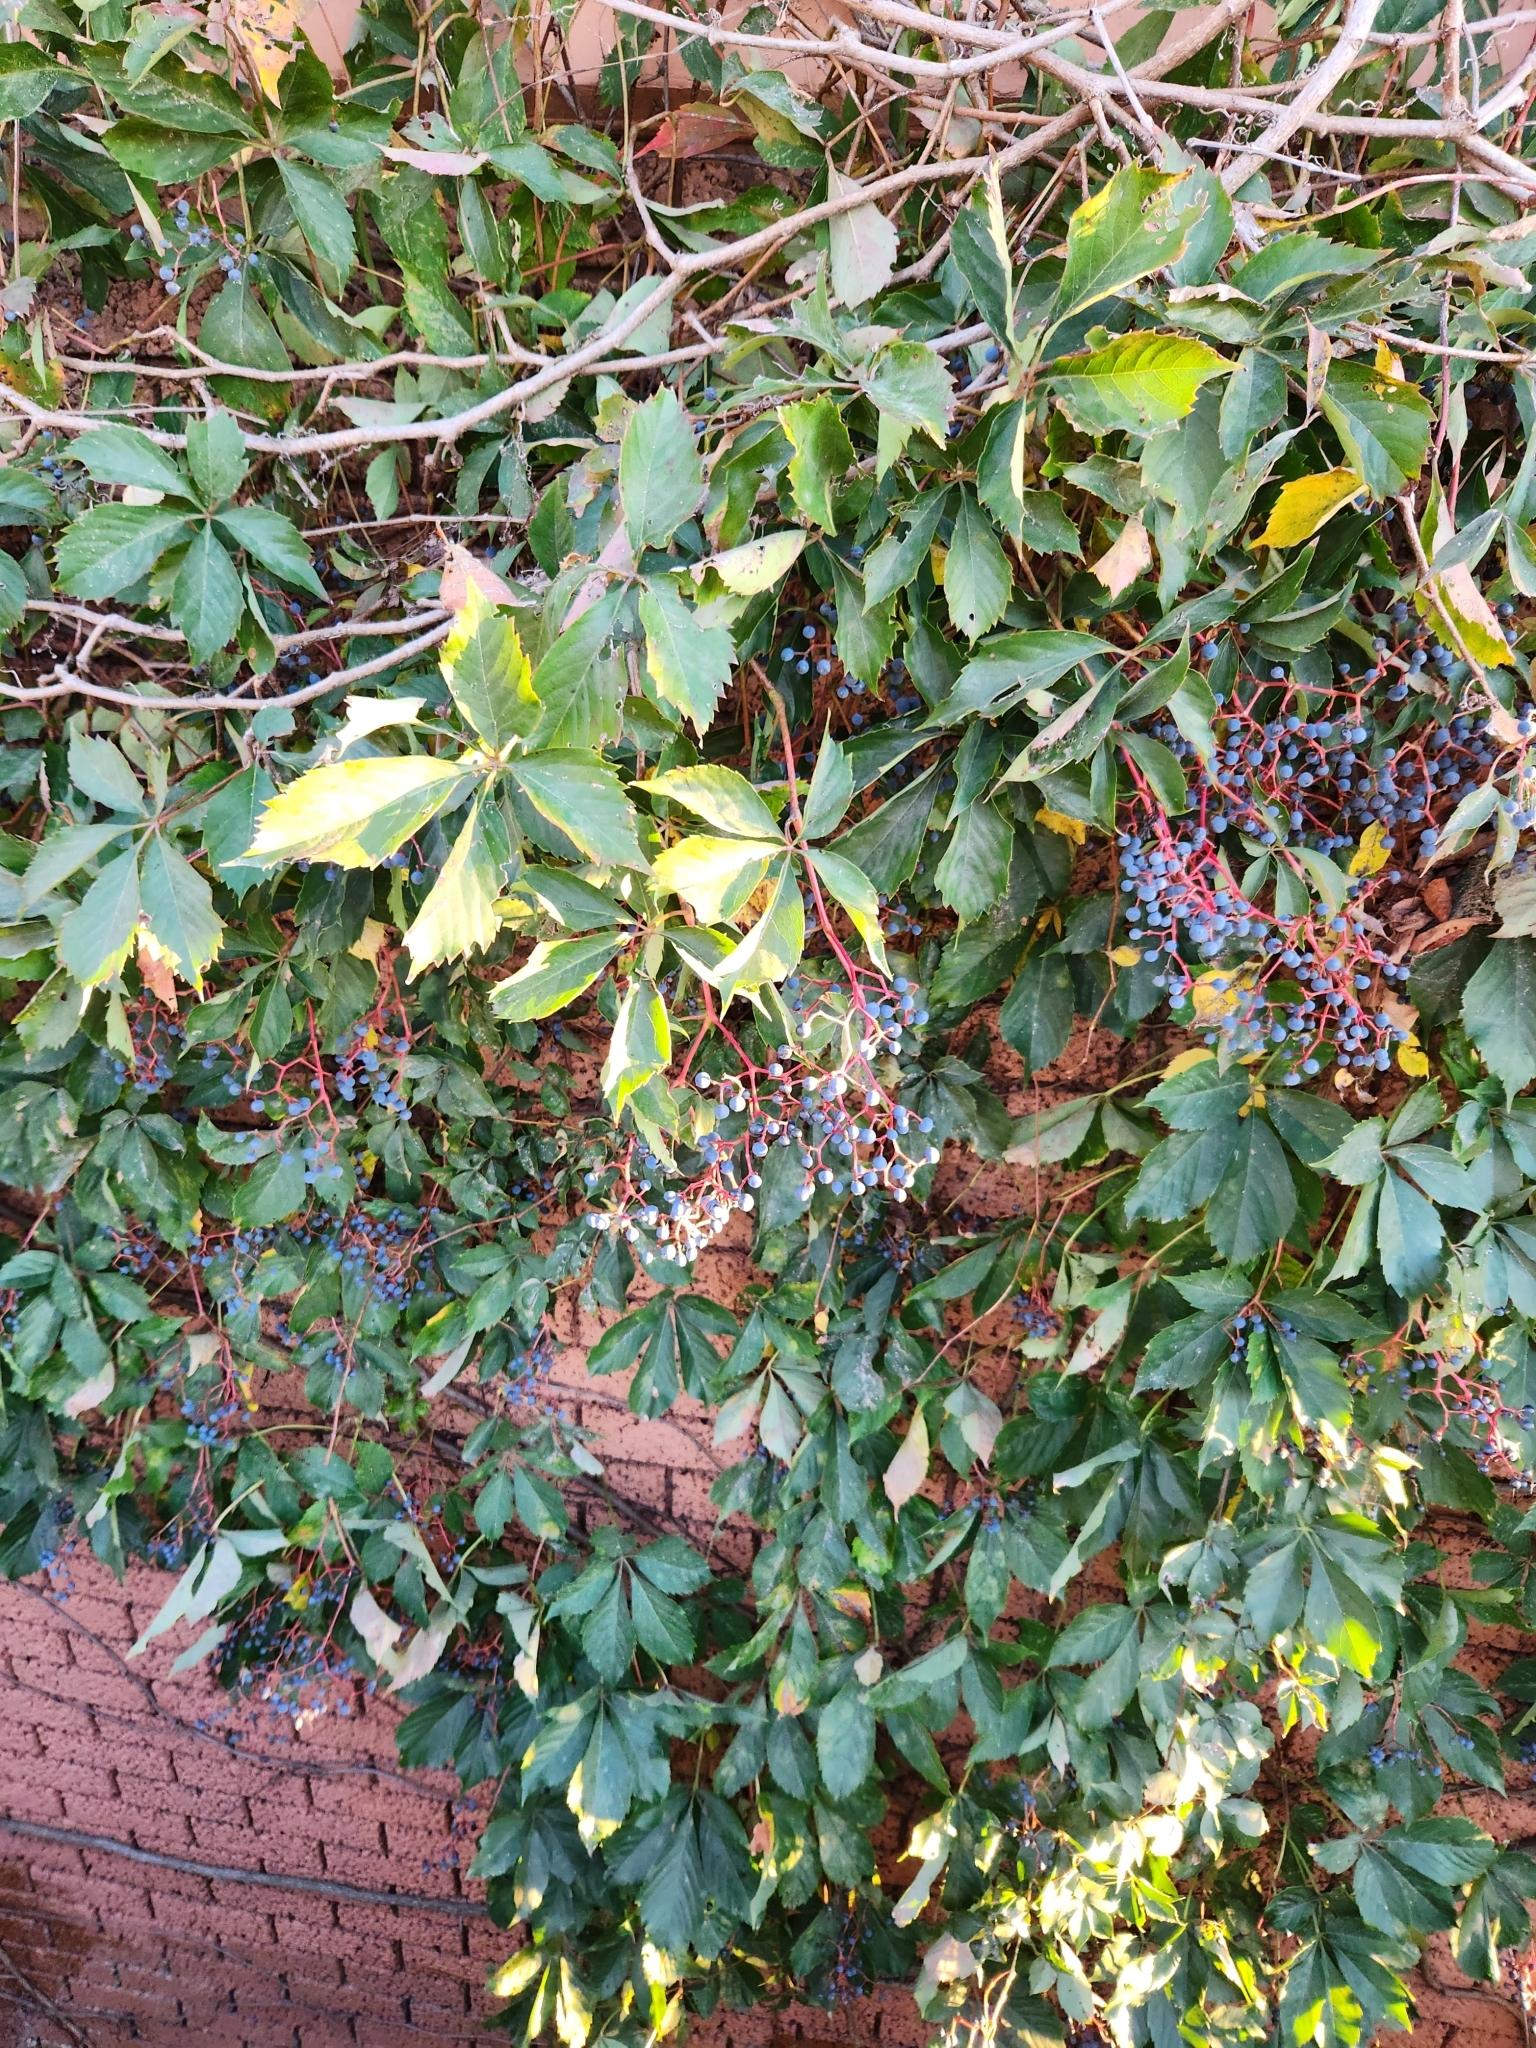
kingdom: Plantae
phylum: Tracheophyta
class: Magnoliopsida
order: Vitales
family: Vitaceae
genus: Parthenocissus
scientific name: Parthenocissus quinquefolia
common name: Virginia-creeper
